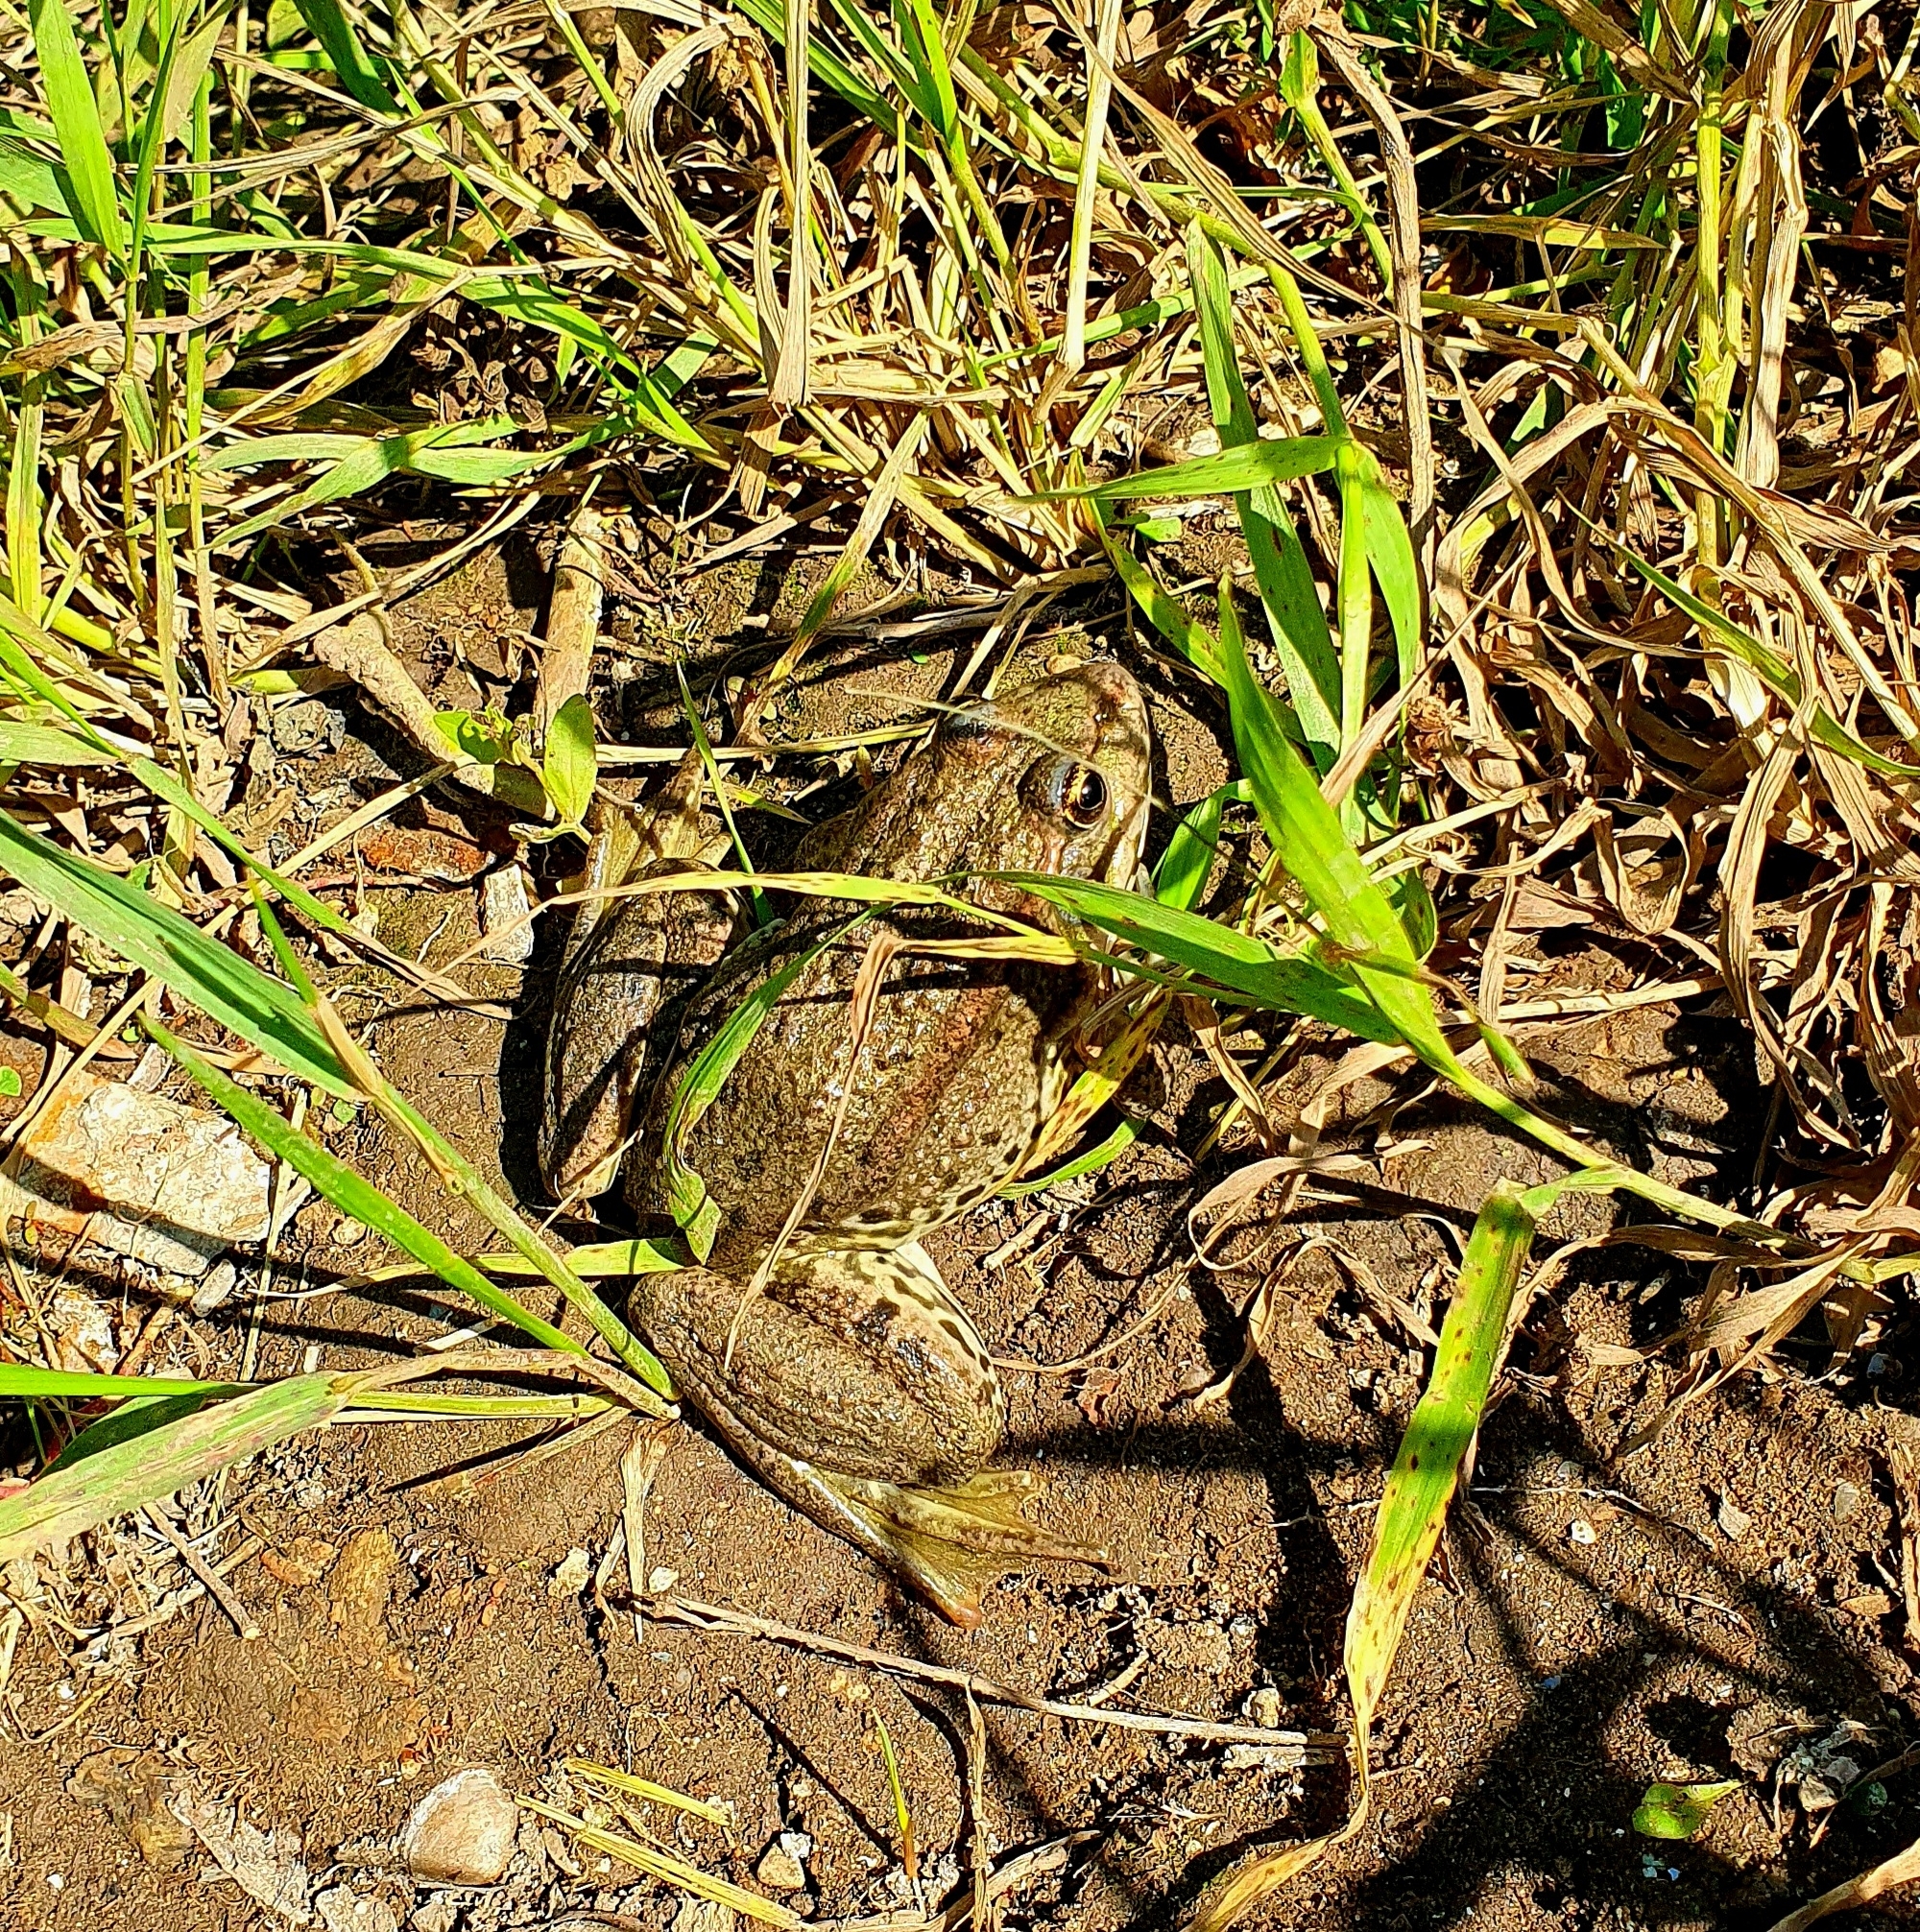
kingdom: Animalia
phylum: Chordata
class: Amphibia
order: Anura
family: Ranidae
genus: Pelophylax
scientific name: Pelophylax ridibundus
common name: Marsh frog
